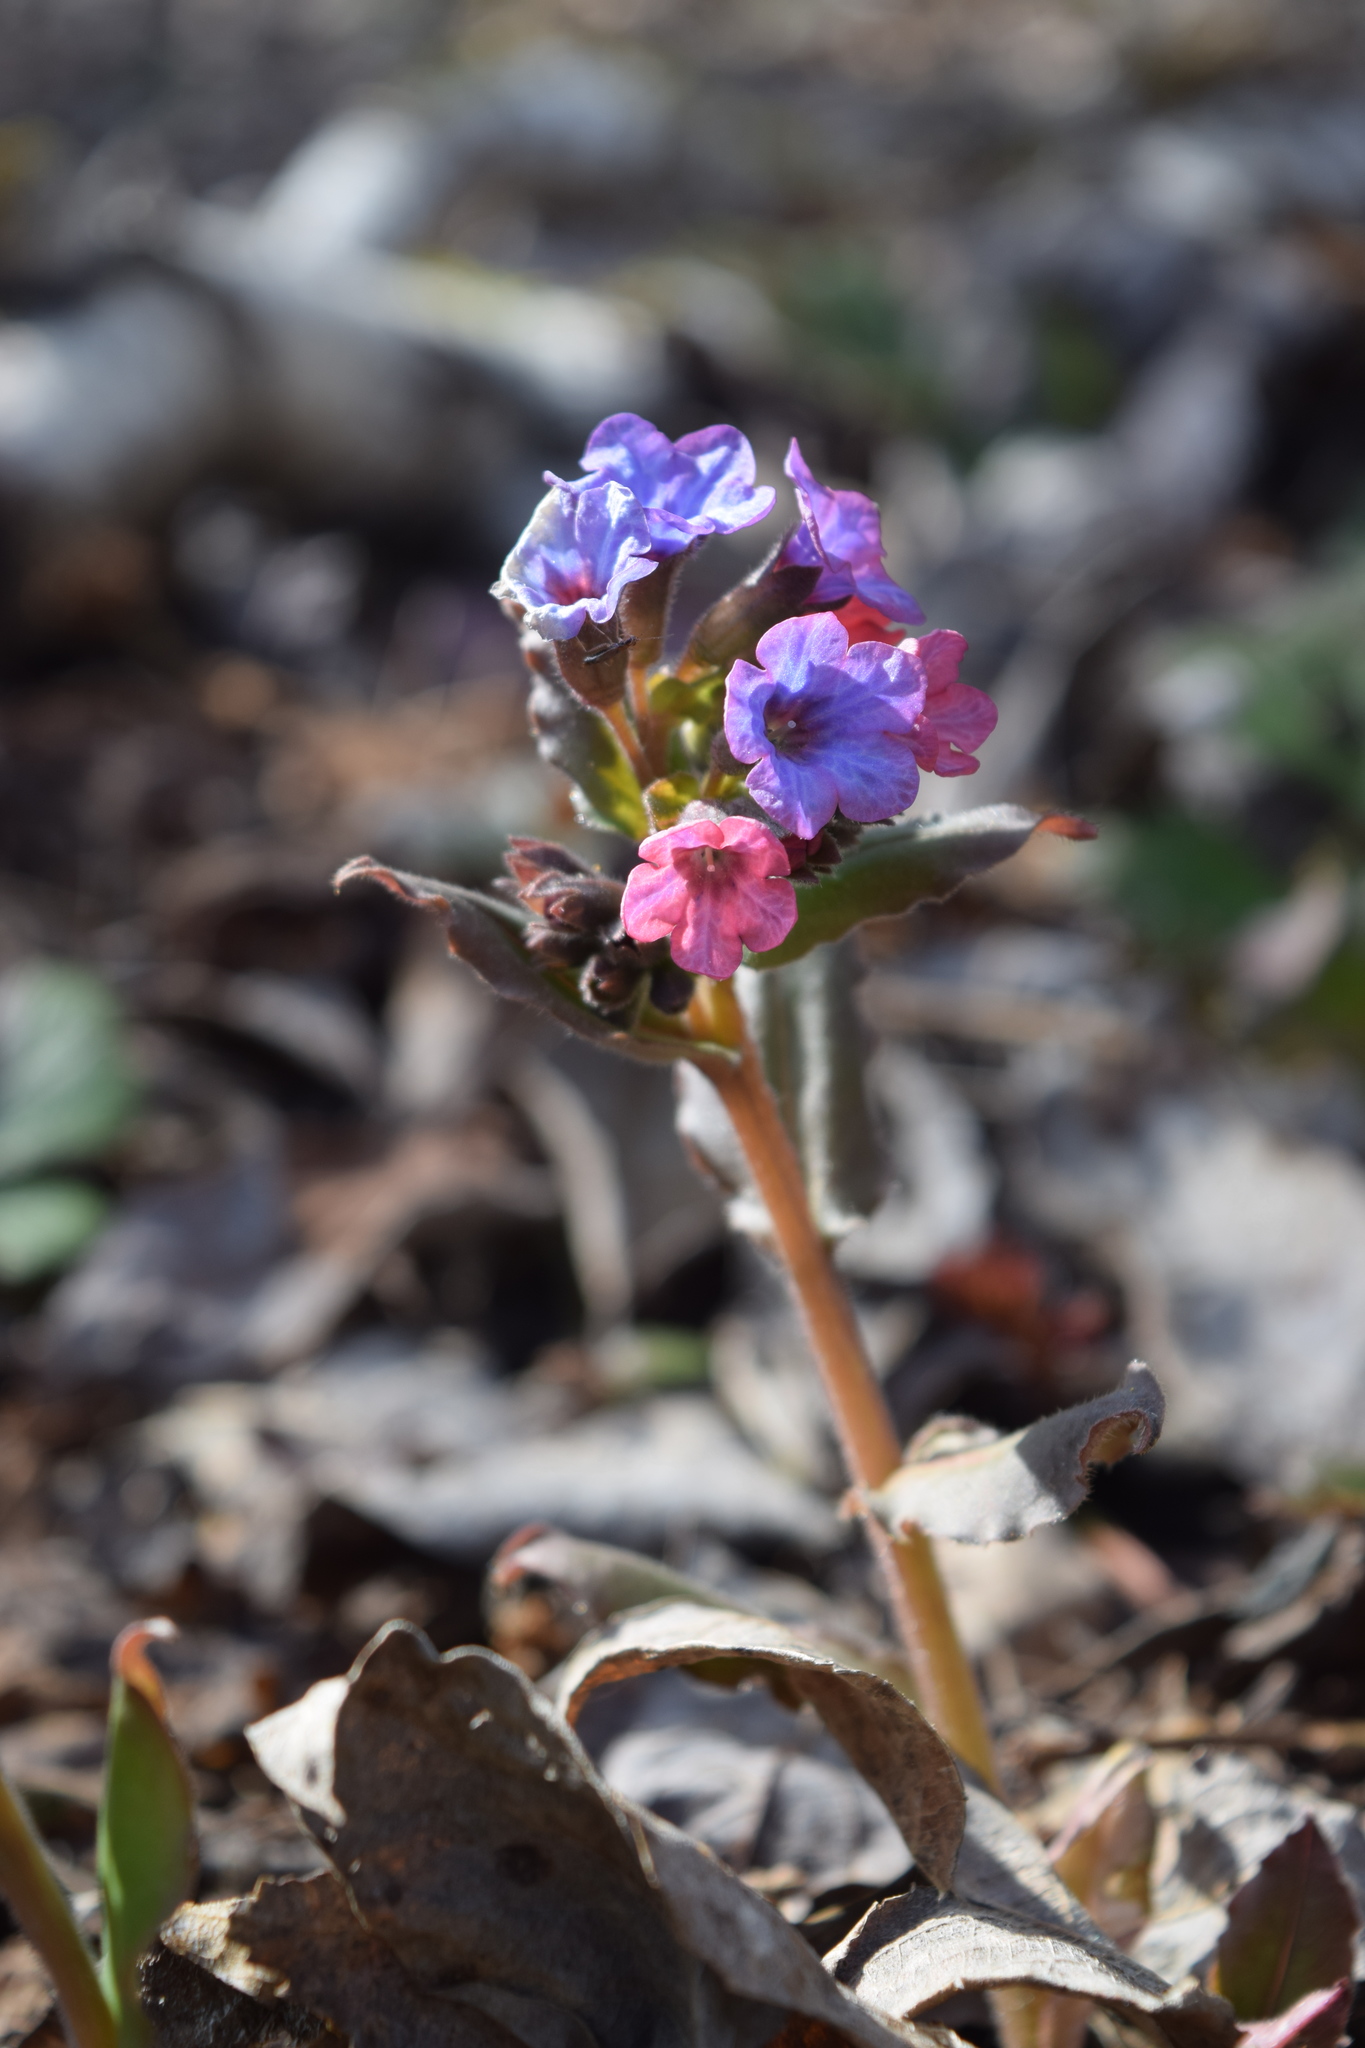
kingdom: Plantae
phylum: Tracheophyta
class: Magnoliopsida
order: Boraginales
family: Boraginaceae
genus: Pulmonaria
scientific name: Pulmonaria obscura
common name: Suffolk lungwort
